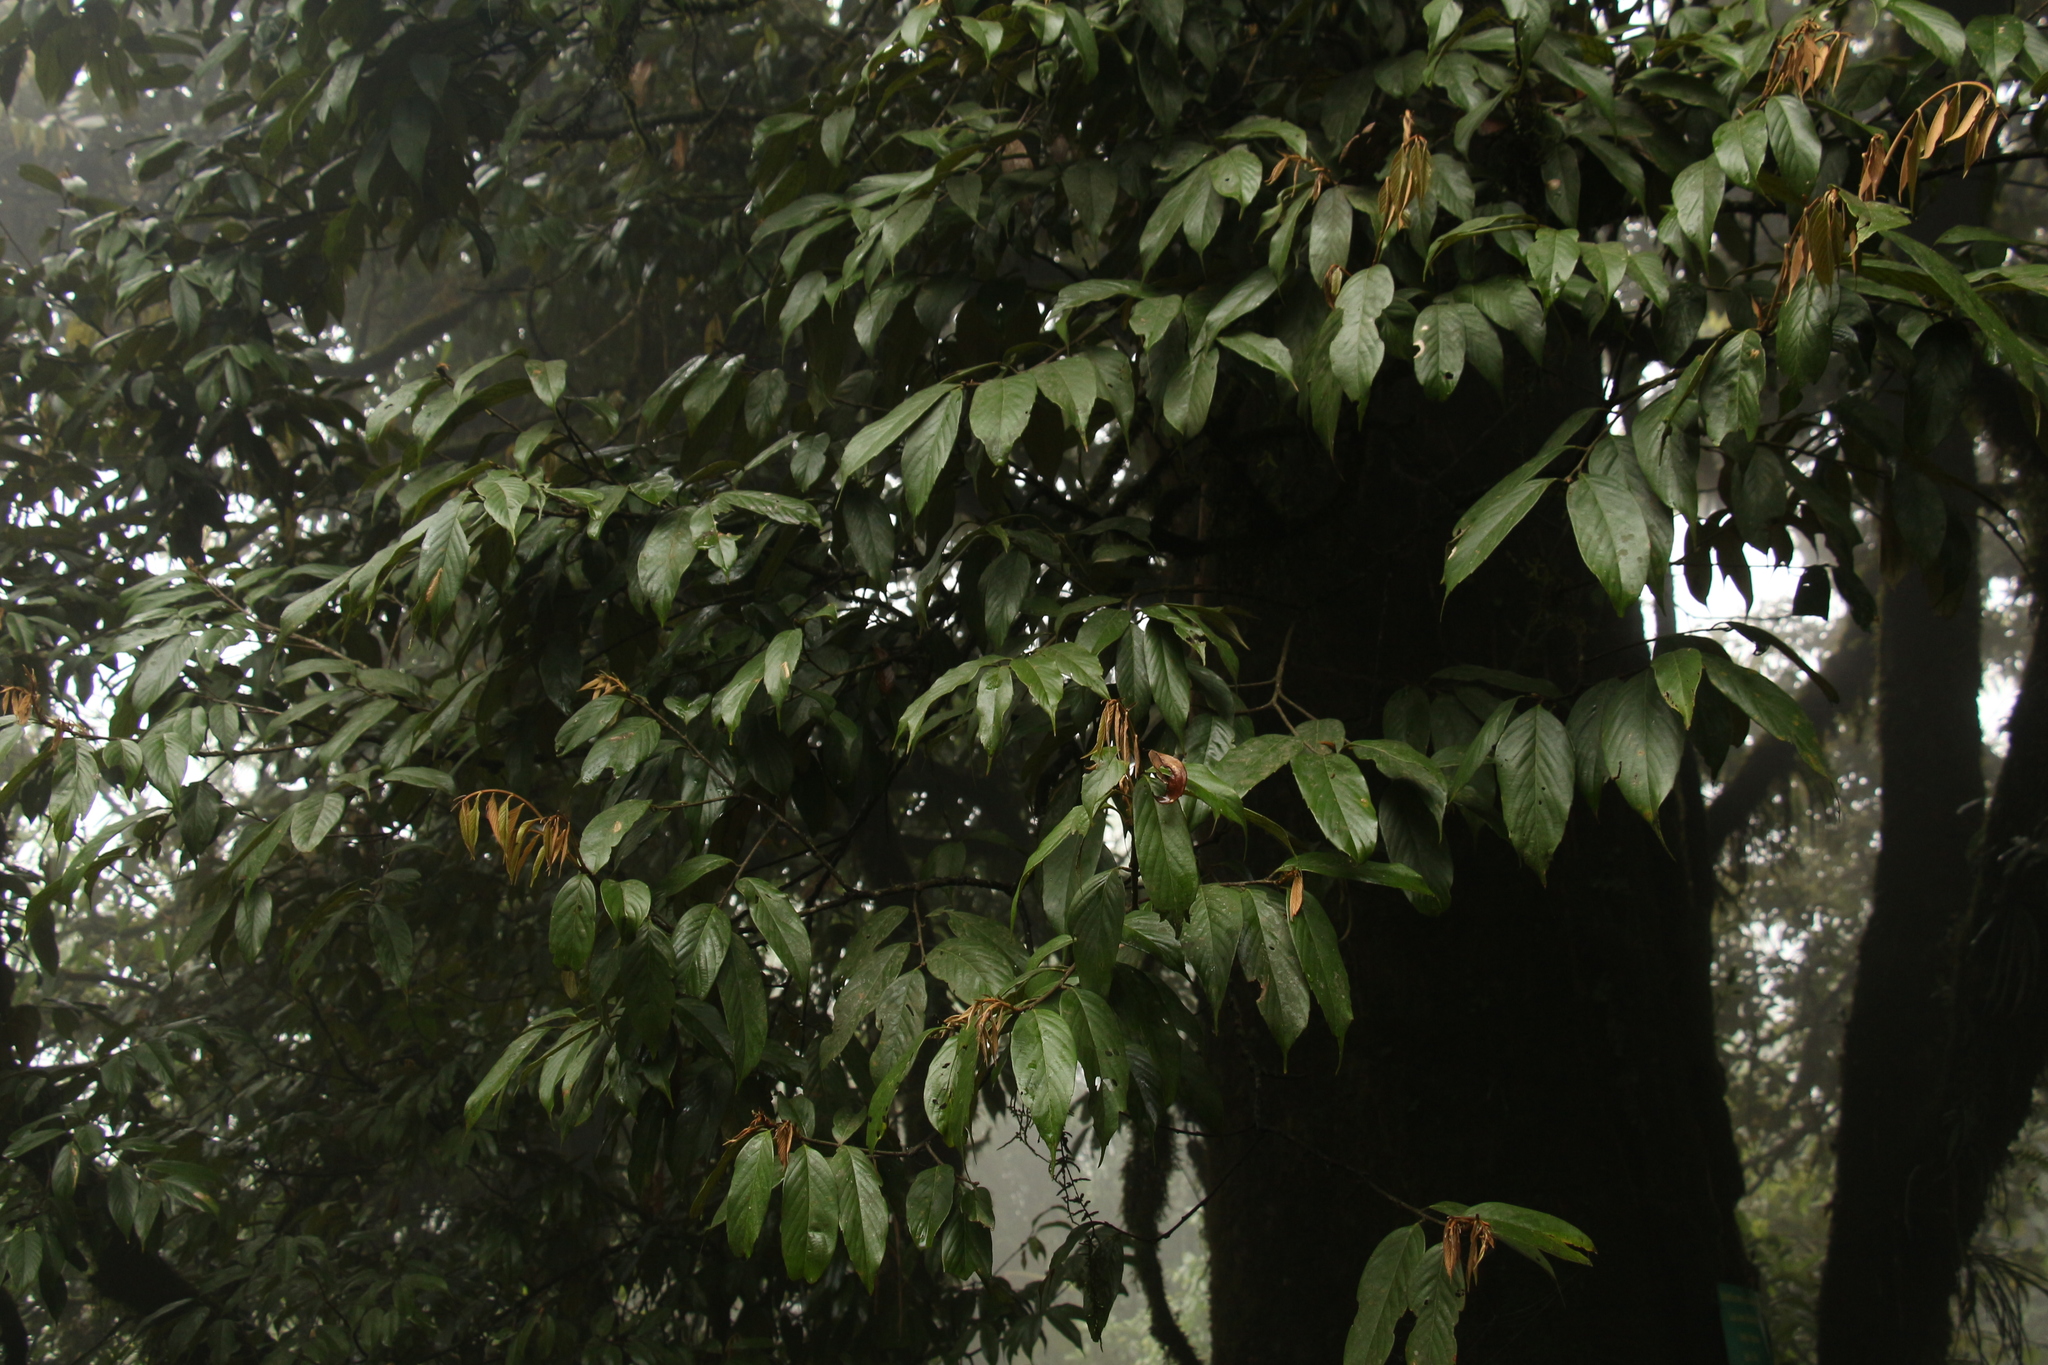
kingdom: Plantae
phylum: Tracheophyta
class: Magnoliopsida
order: Fagales
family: Fagaceae
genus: Quercus
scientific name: Quercus lamellosa
